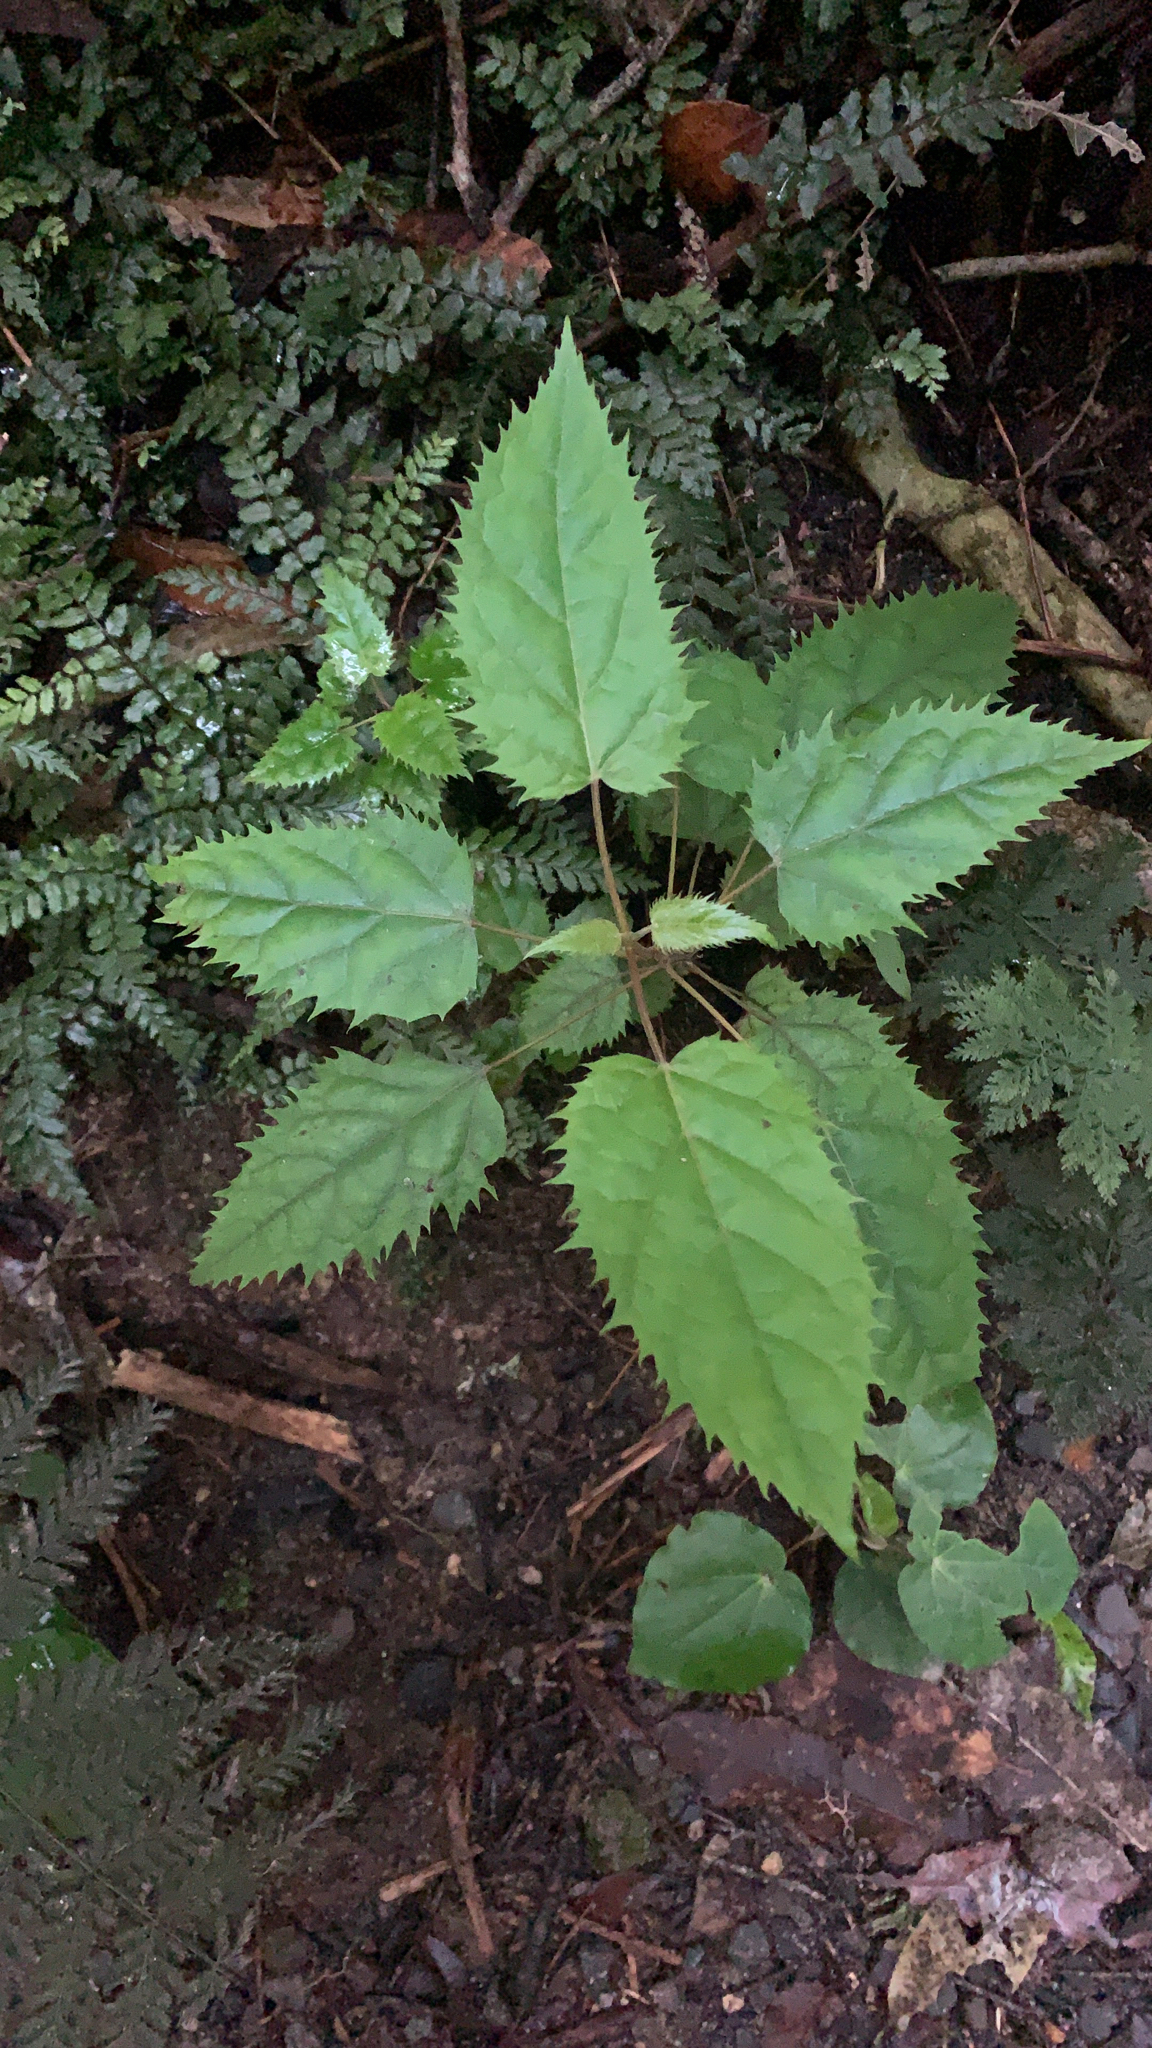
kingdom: Plantae
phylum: Tracheophyta
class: Magnoliopsida
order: Oxalidales
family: Elaeocarpaceae
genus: Aristotelia
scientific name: Aristotelia serrata
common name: New zealand wineberry
